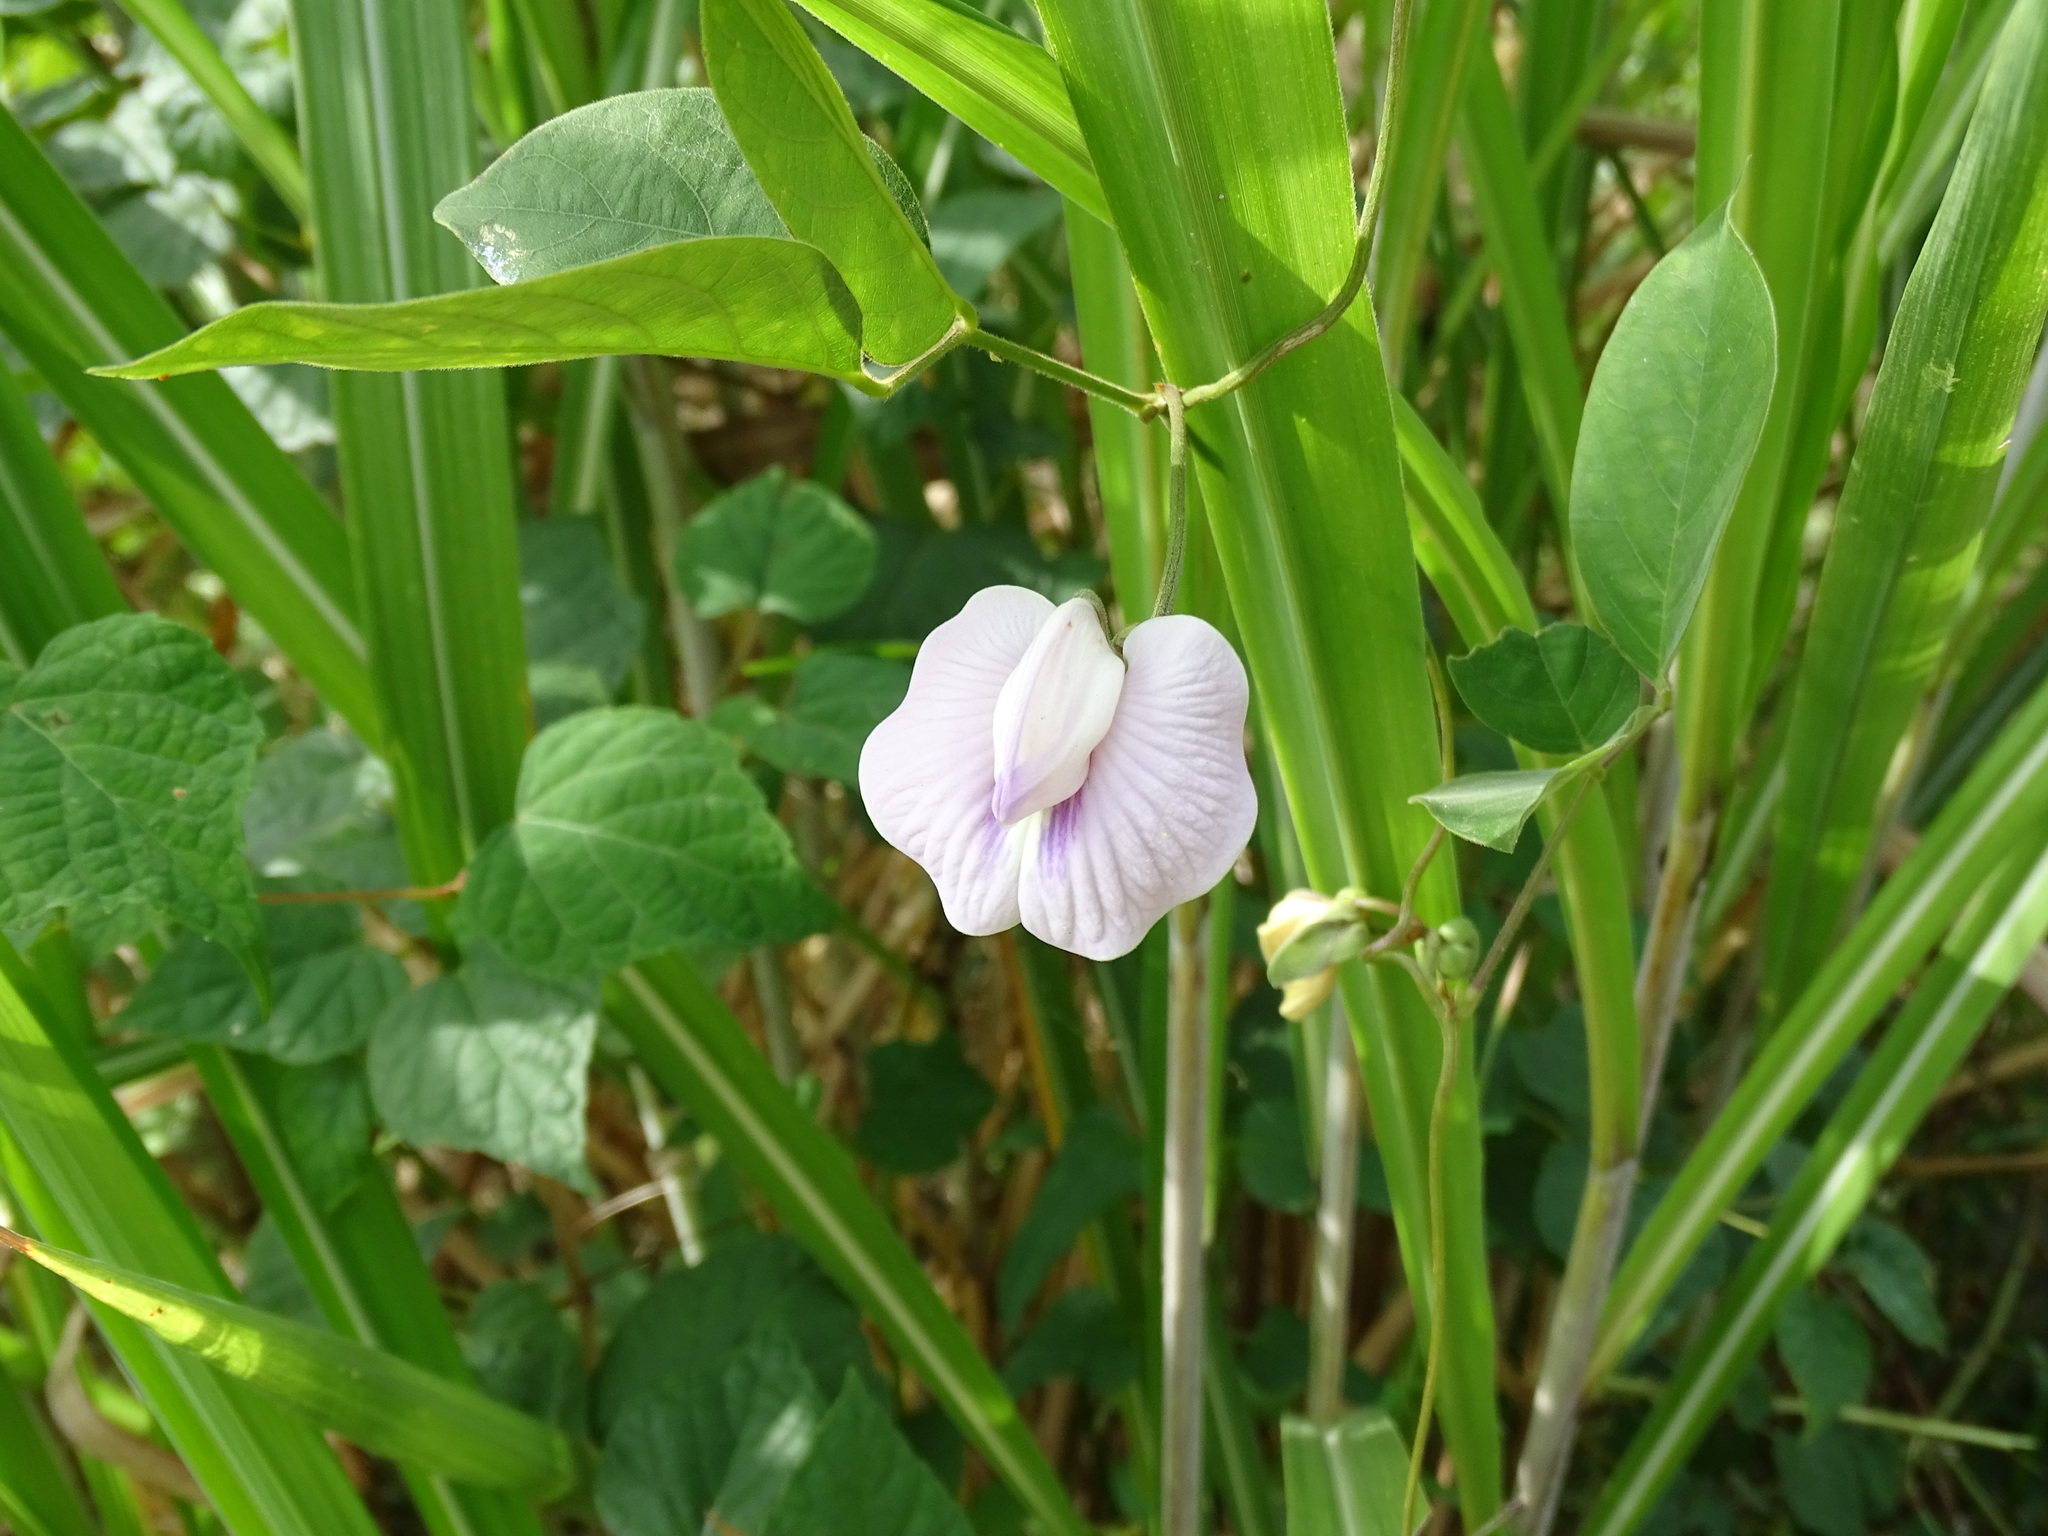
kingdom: Plantae
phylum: Tracheophyta
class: Magnoliopsida
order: Fabales
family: Fabaceae
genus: Centrosema
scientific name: Centrosema pubescens
